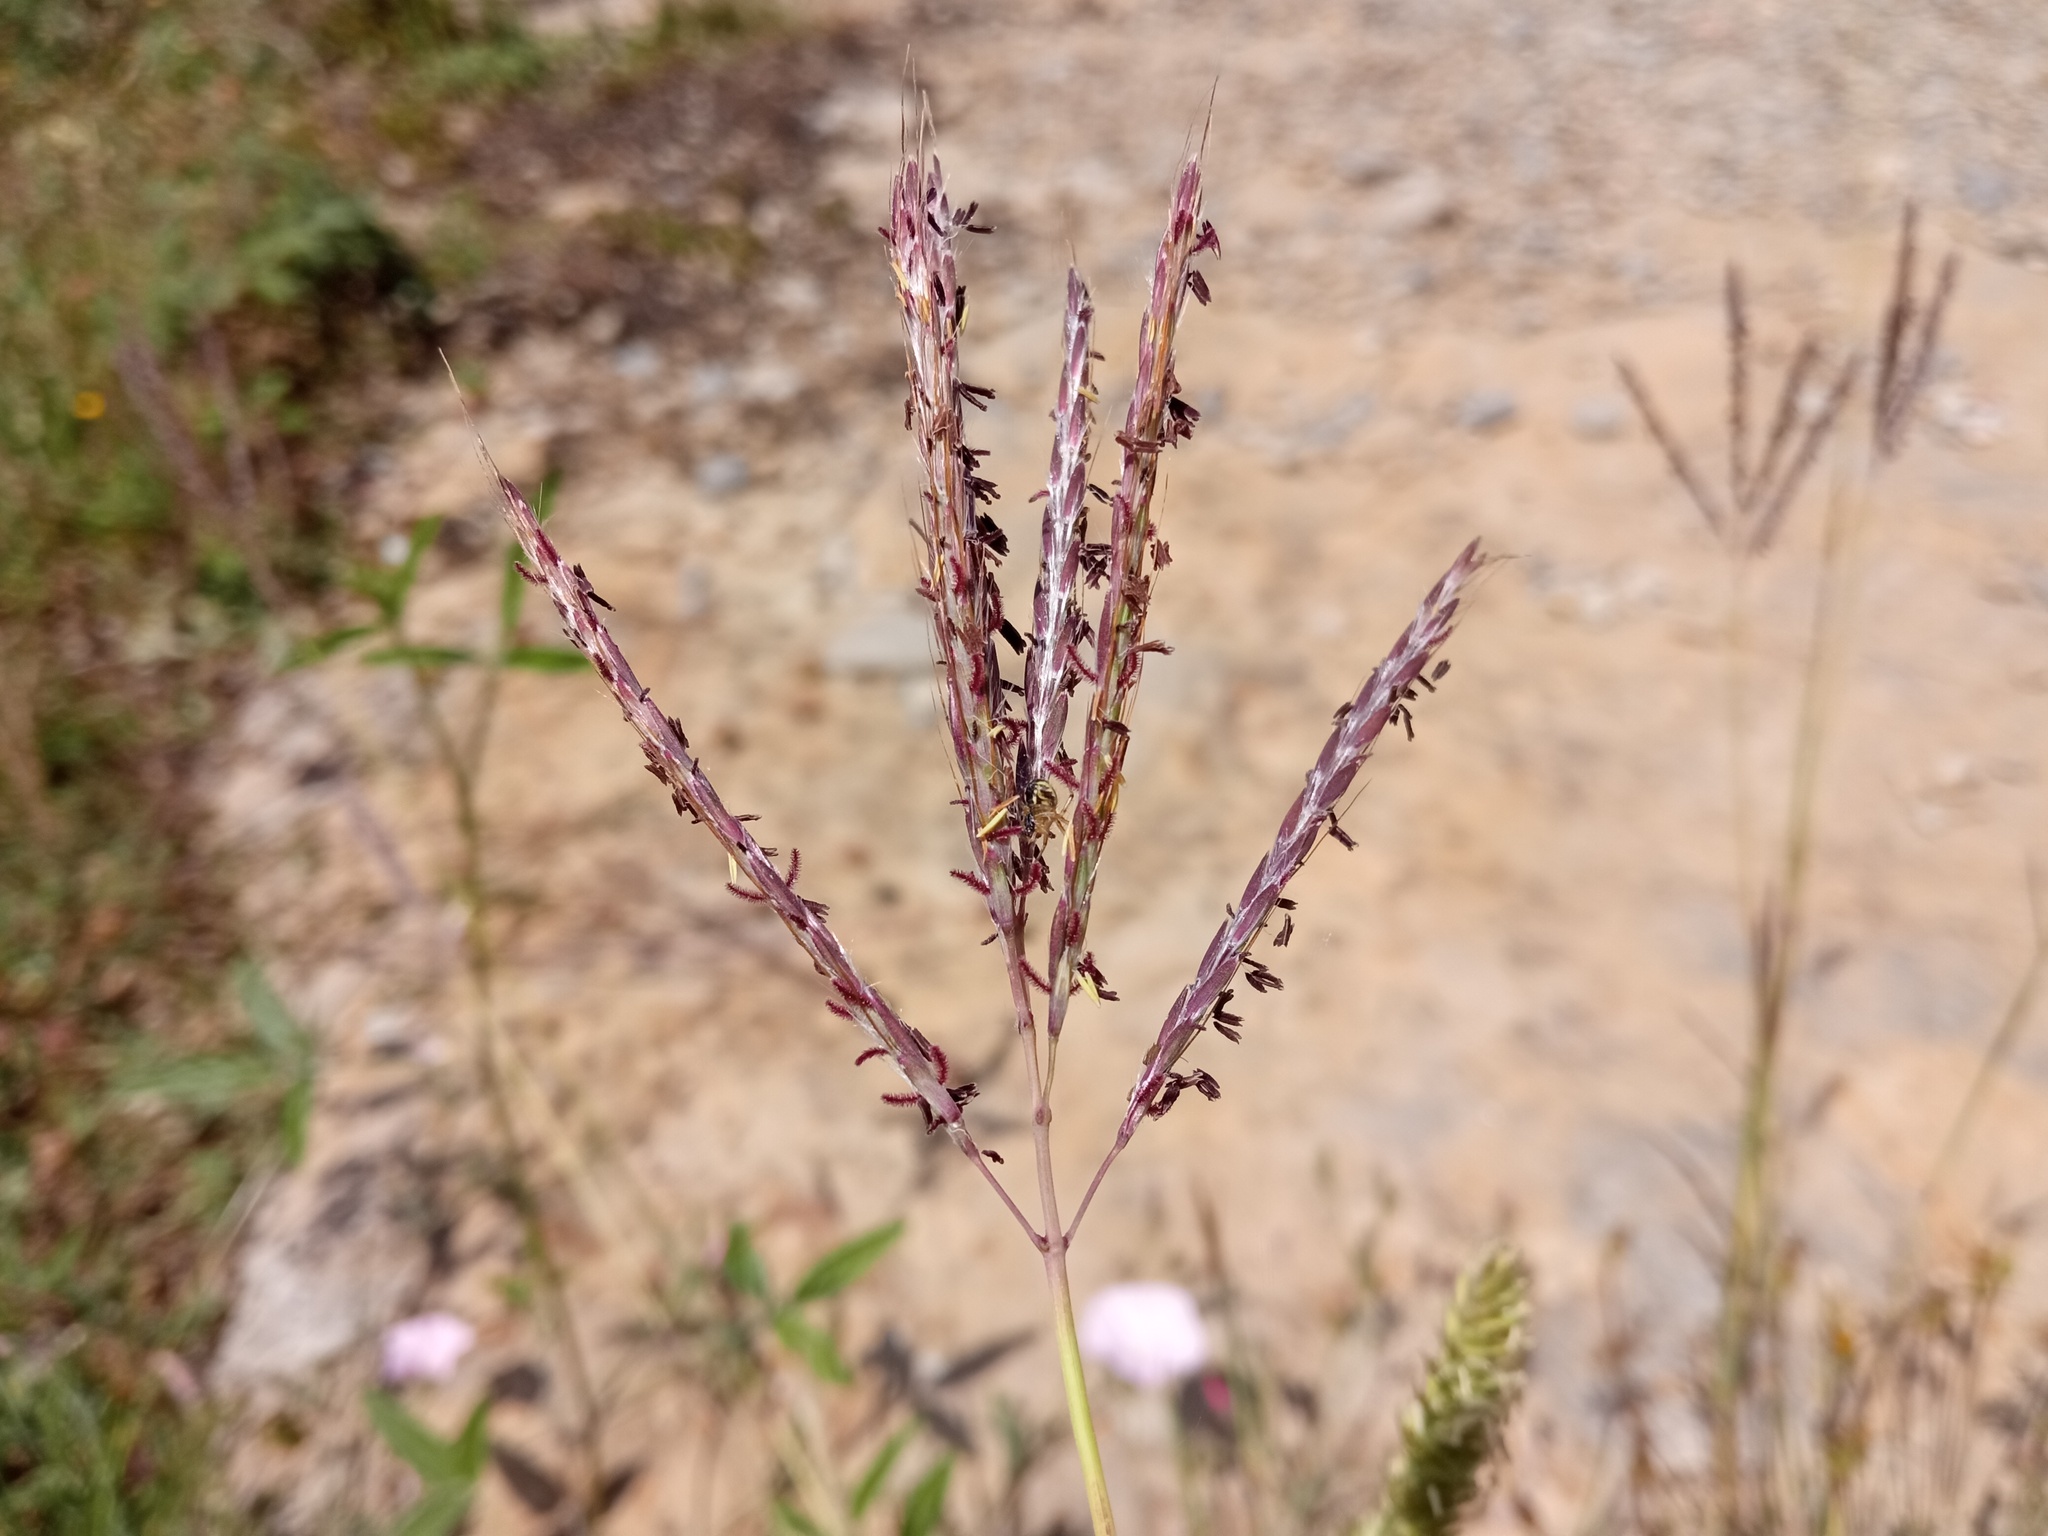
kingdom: Plantae
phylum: Tracheophyta
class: Liliopsida
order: Poales
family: Poaceae
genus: Bothriochloa
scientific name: Bothriochloa ischaemum
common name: Yellow bluestem
